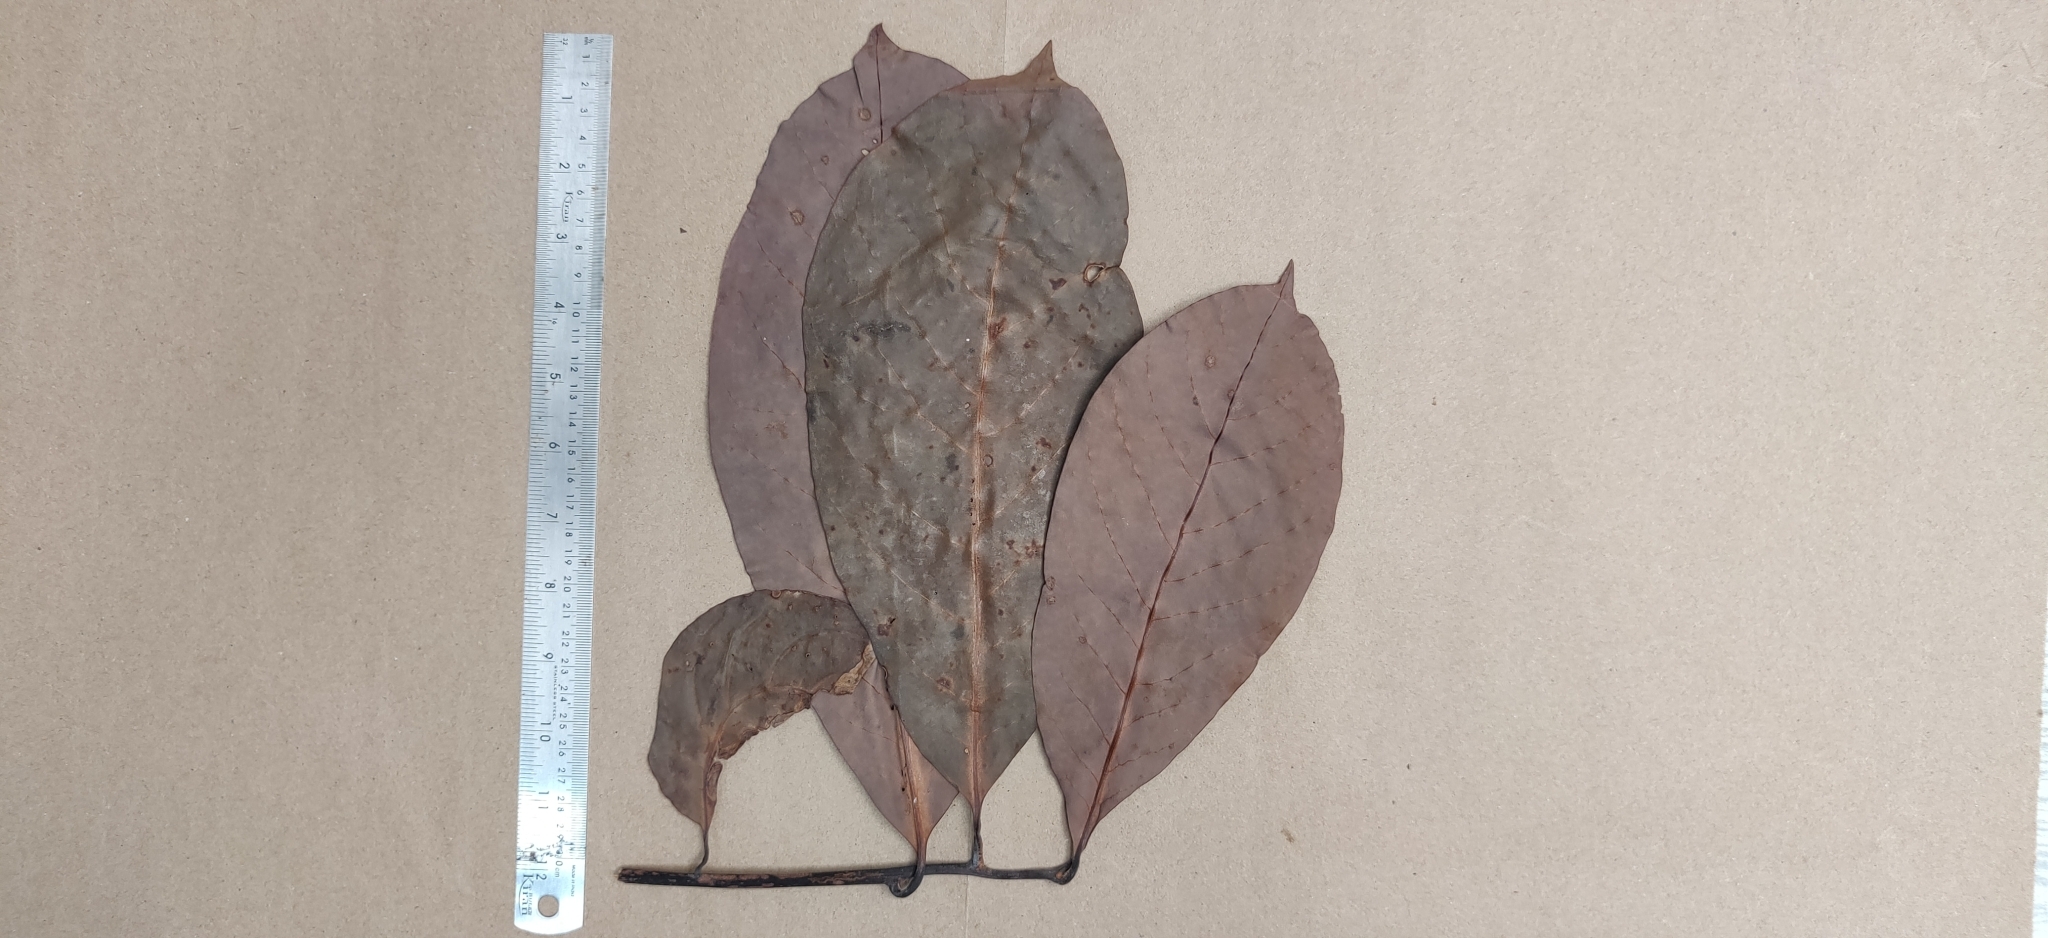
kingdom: Plantae
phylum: Tracheophyta
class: Magnoliopsida
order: Laurales
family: Lauraceae
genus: Litsea
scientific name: Litsea nigrescens
